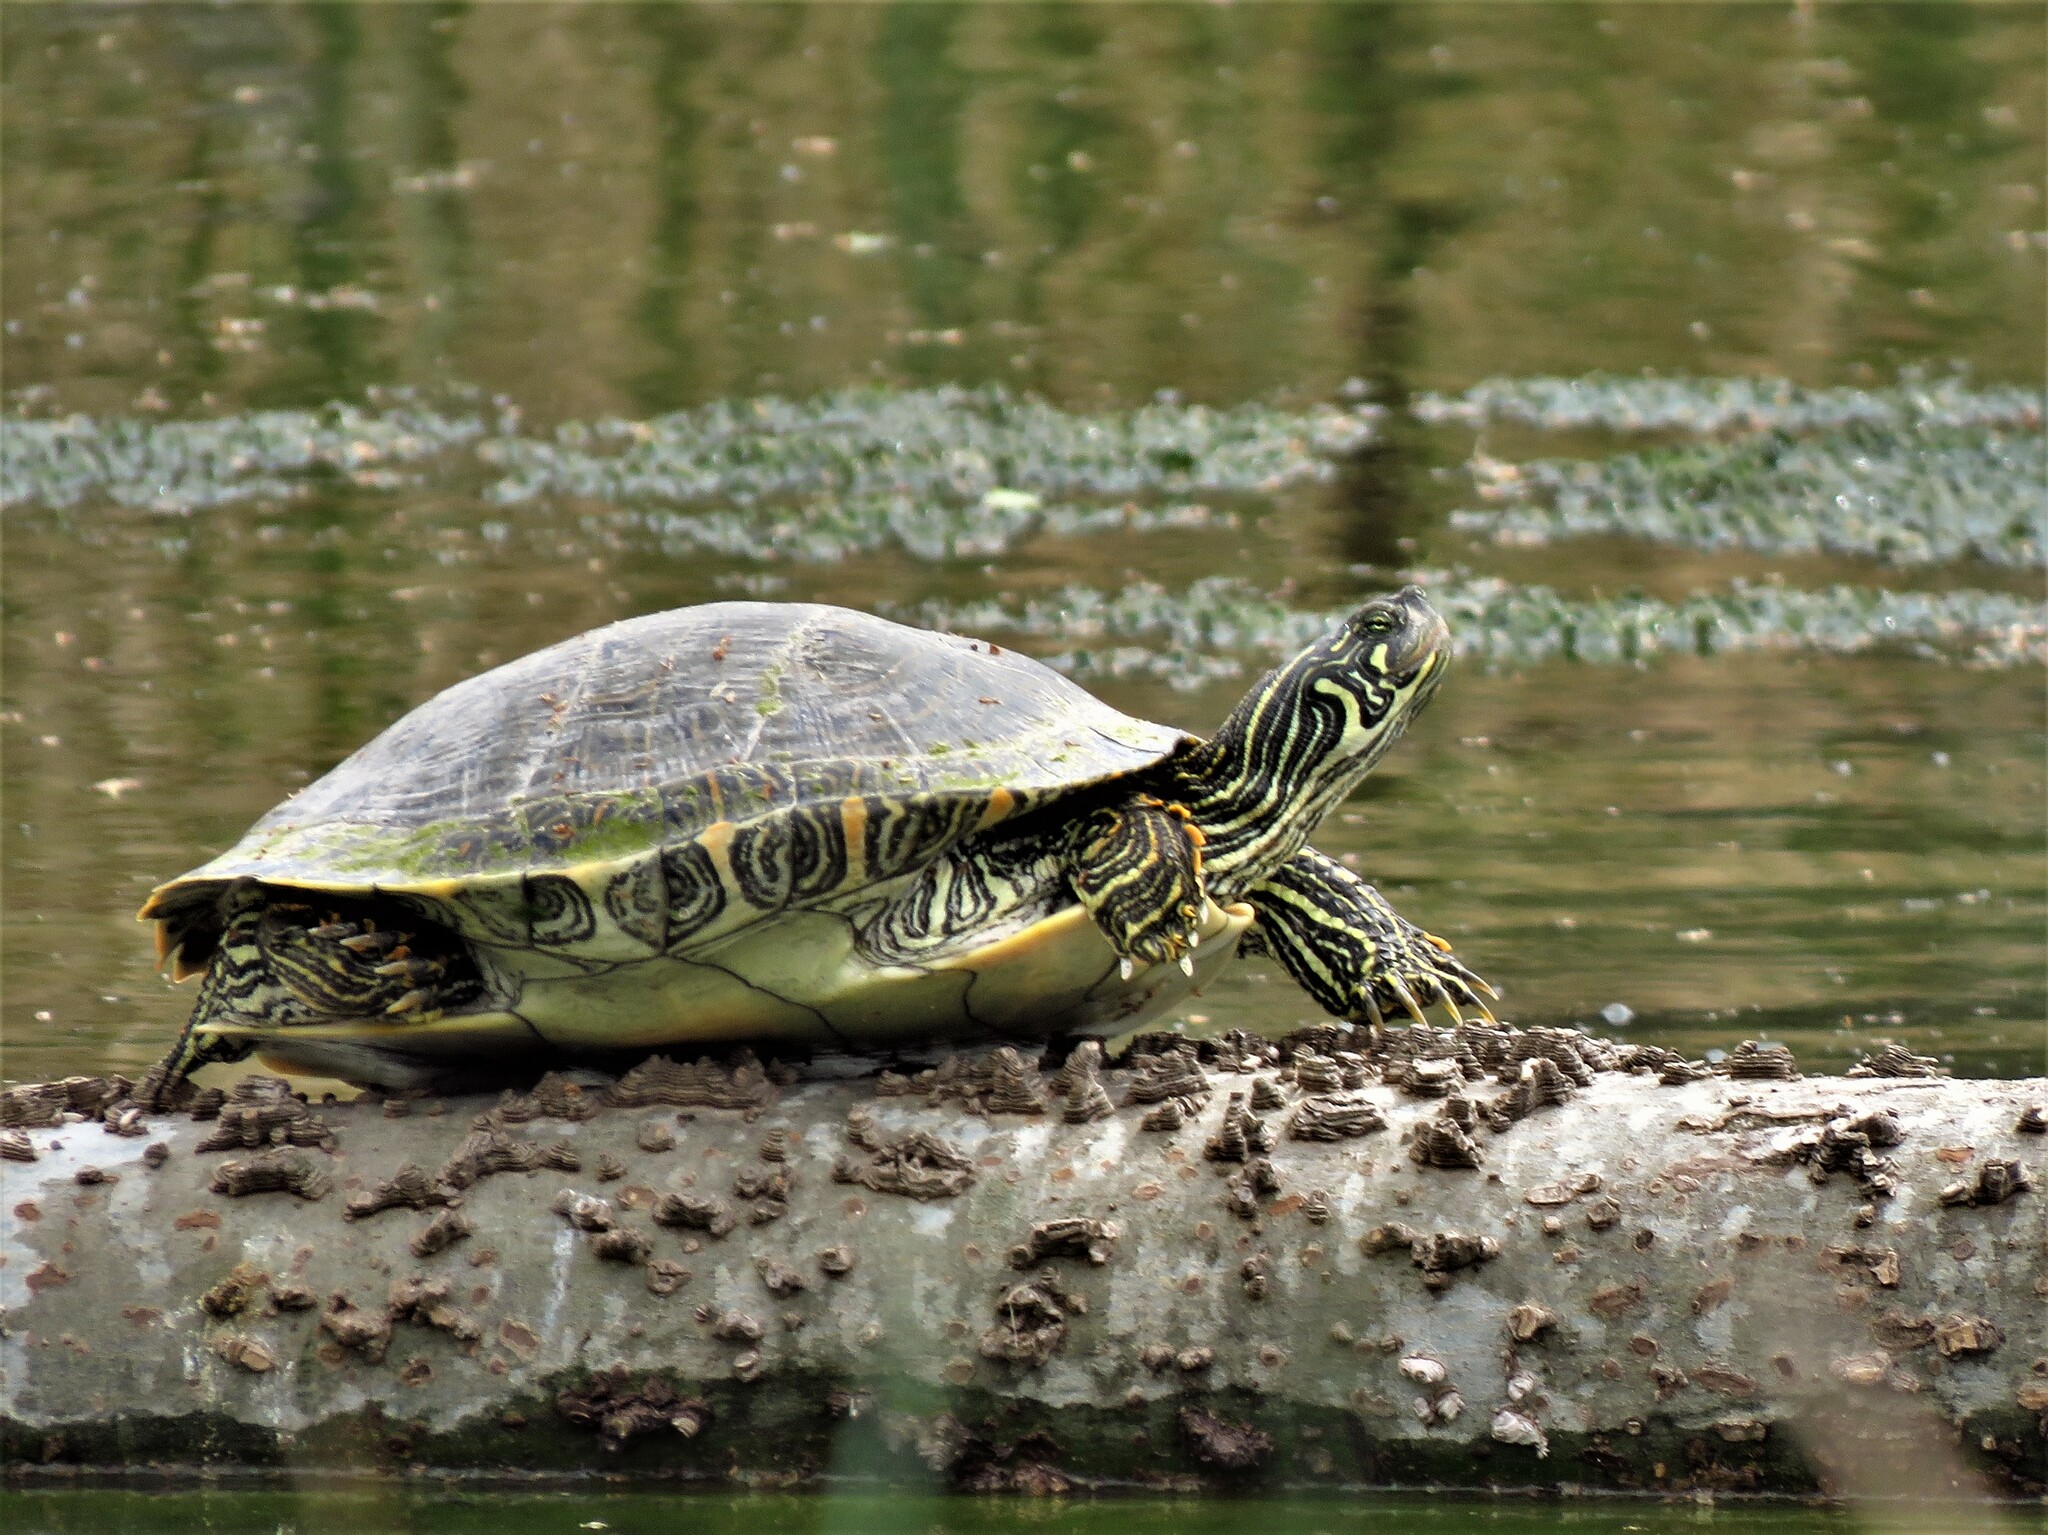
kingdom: Animalia
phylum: Chordata
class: Testudines
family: Emydidae
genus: Pseudemys
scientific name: Pseudemys texana
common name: Texas river cooter
